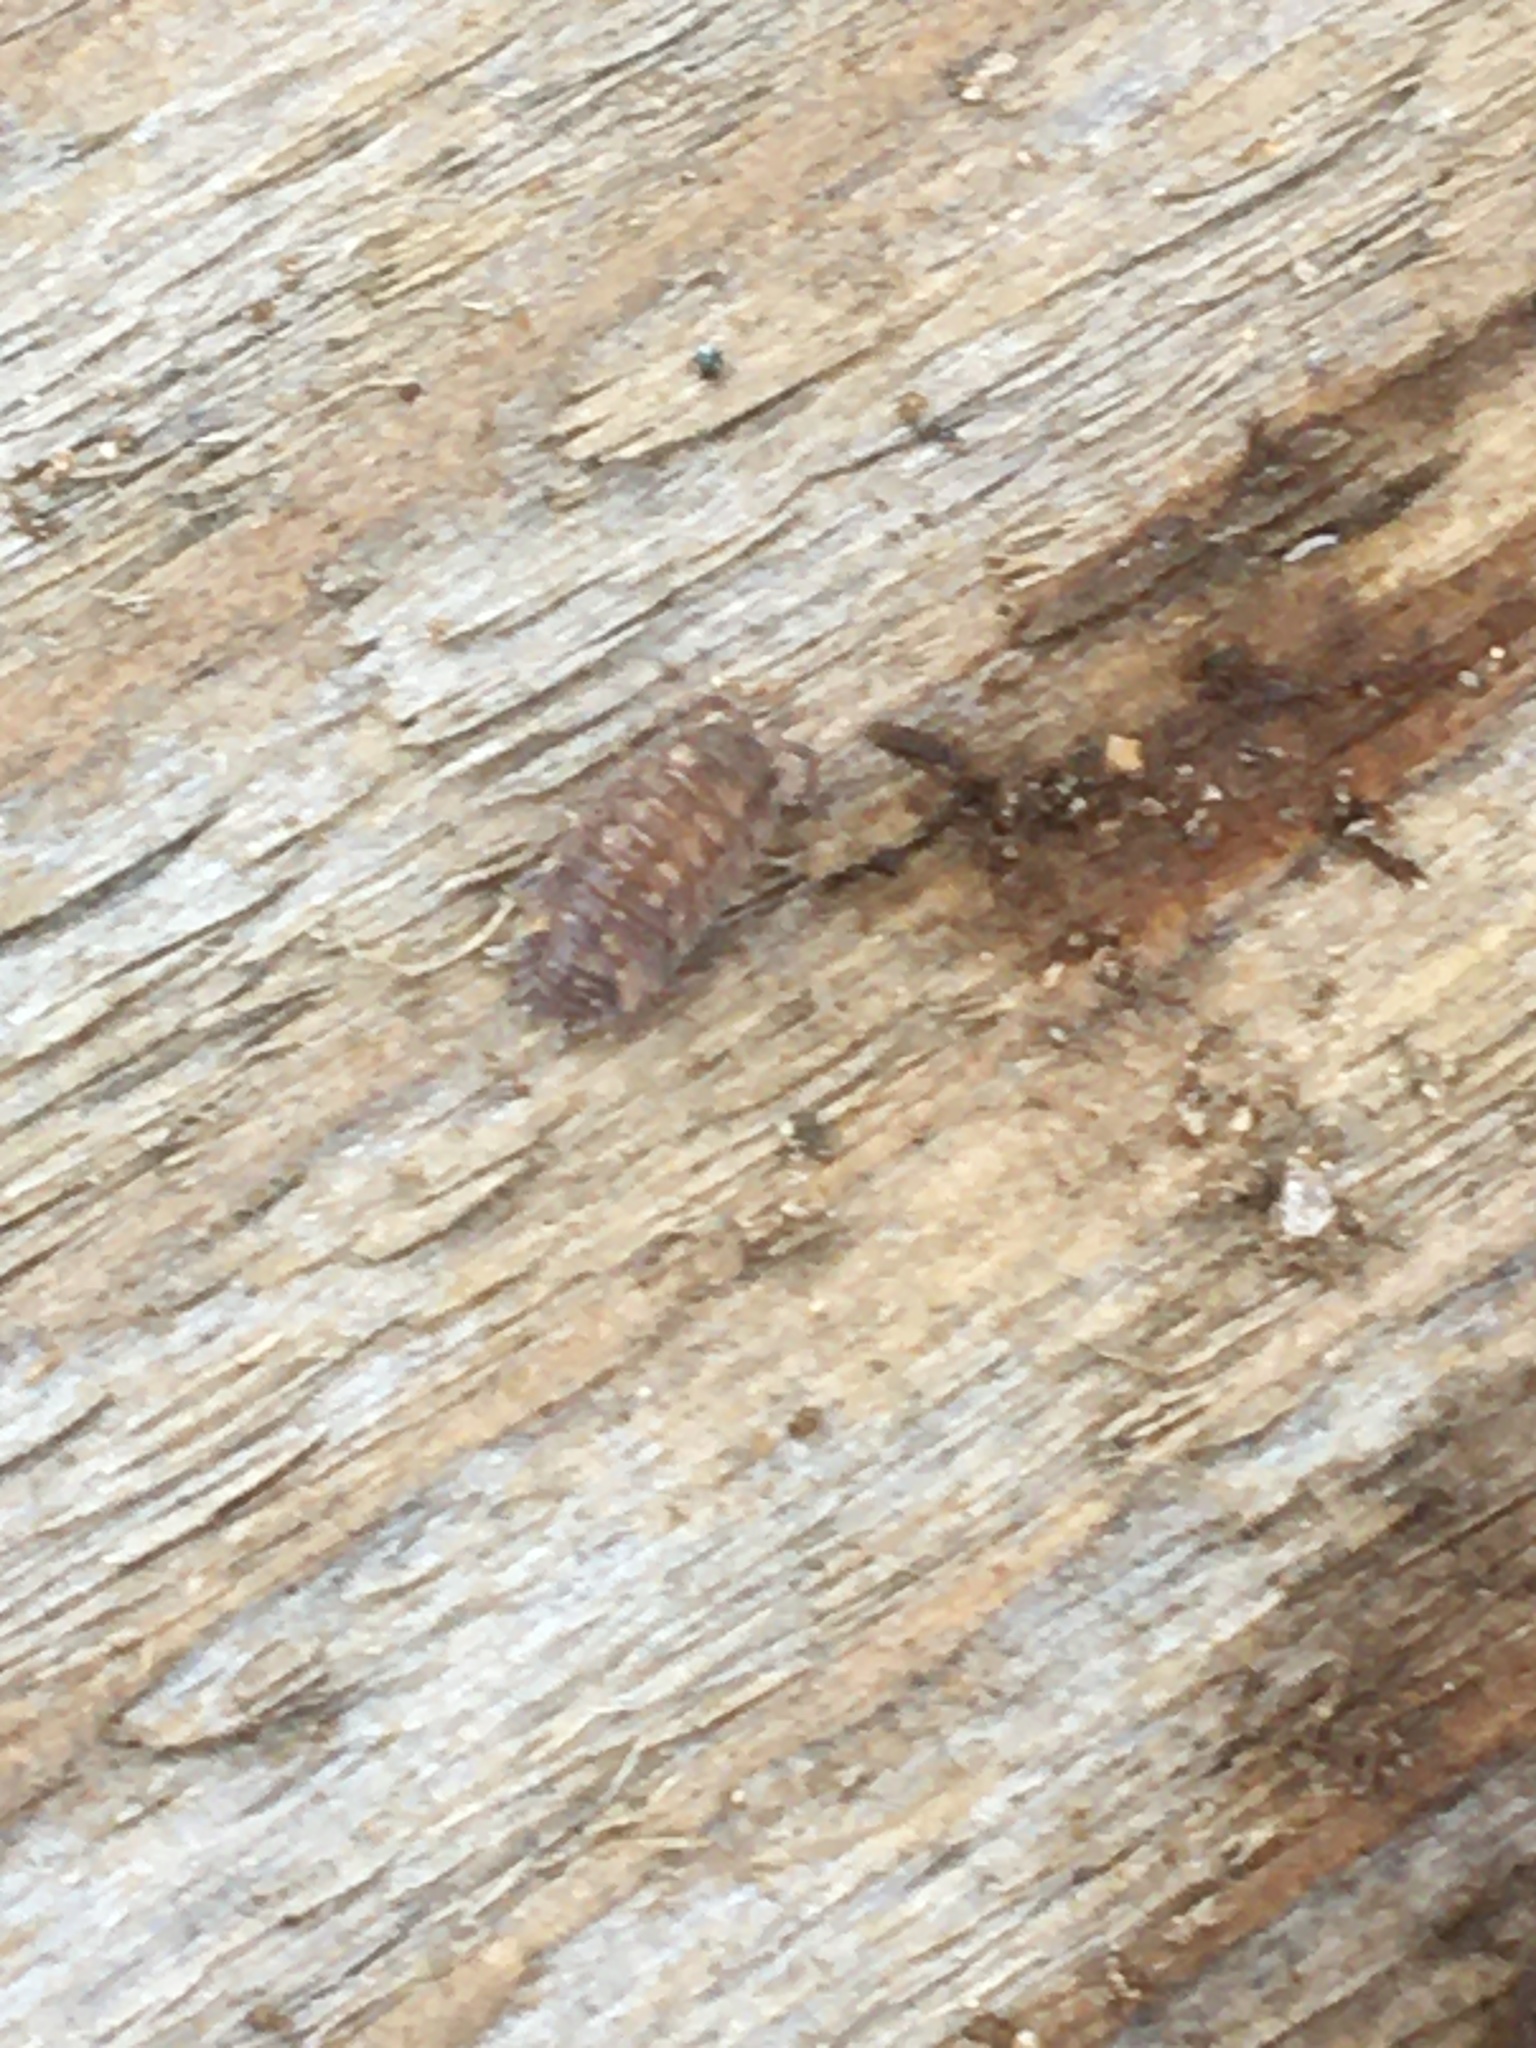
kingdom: Animalia
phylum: Arthropoda
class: Malacostraca
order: Isopoda
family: Oniscidae
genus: Oniscus
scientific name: Oniscus asellus
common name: Common shiny woodlouse
